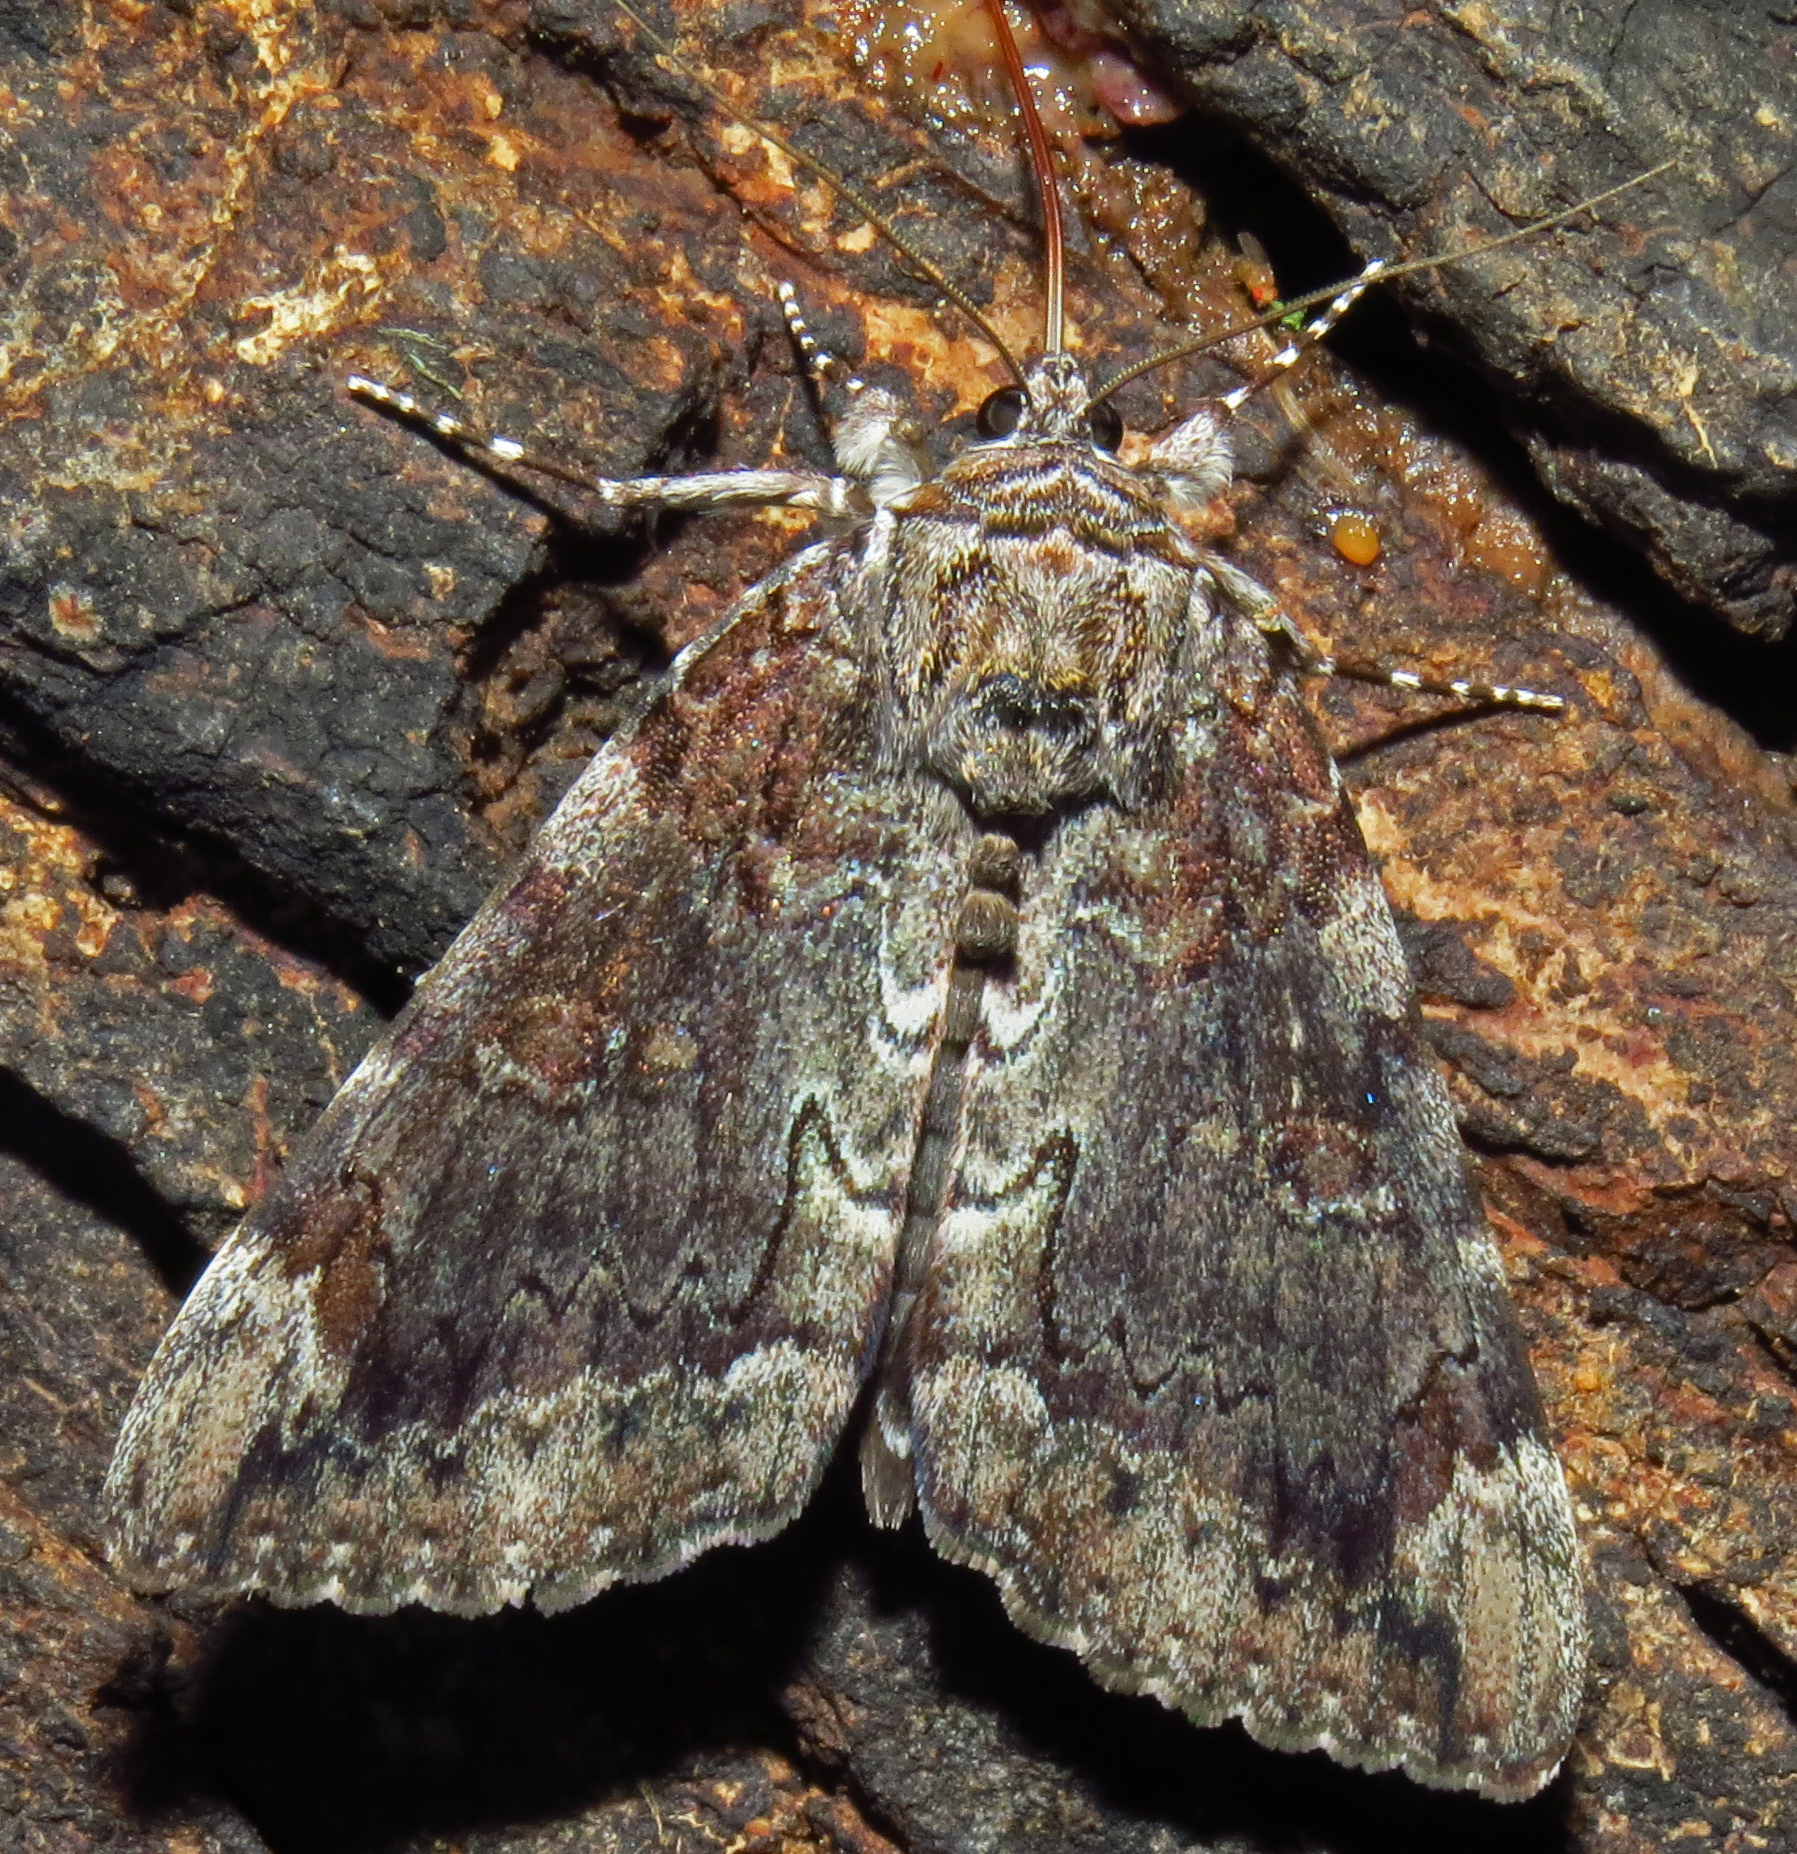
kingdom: Animalia
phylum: Arthropoda
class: Insecta
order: Lepidoptera
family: Erebidae
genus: Catocala
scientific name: Catocala lacrymosa
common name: Tearful underwing
